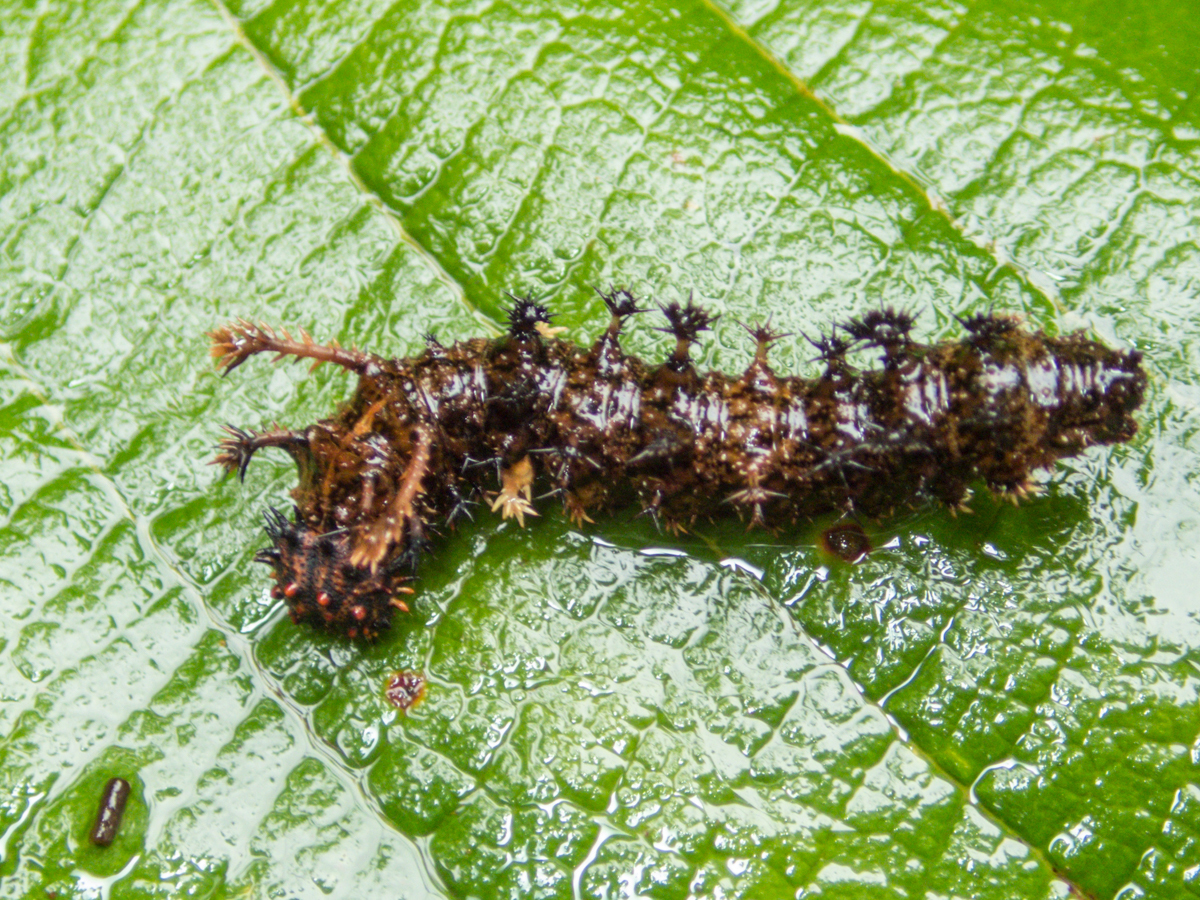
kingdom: Animalia
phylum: Arthropoda
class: Insecta
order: Lepidoptera
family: Nymphalidae
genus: Limenitis
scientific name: Limenitis Moduza procris
